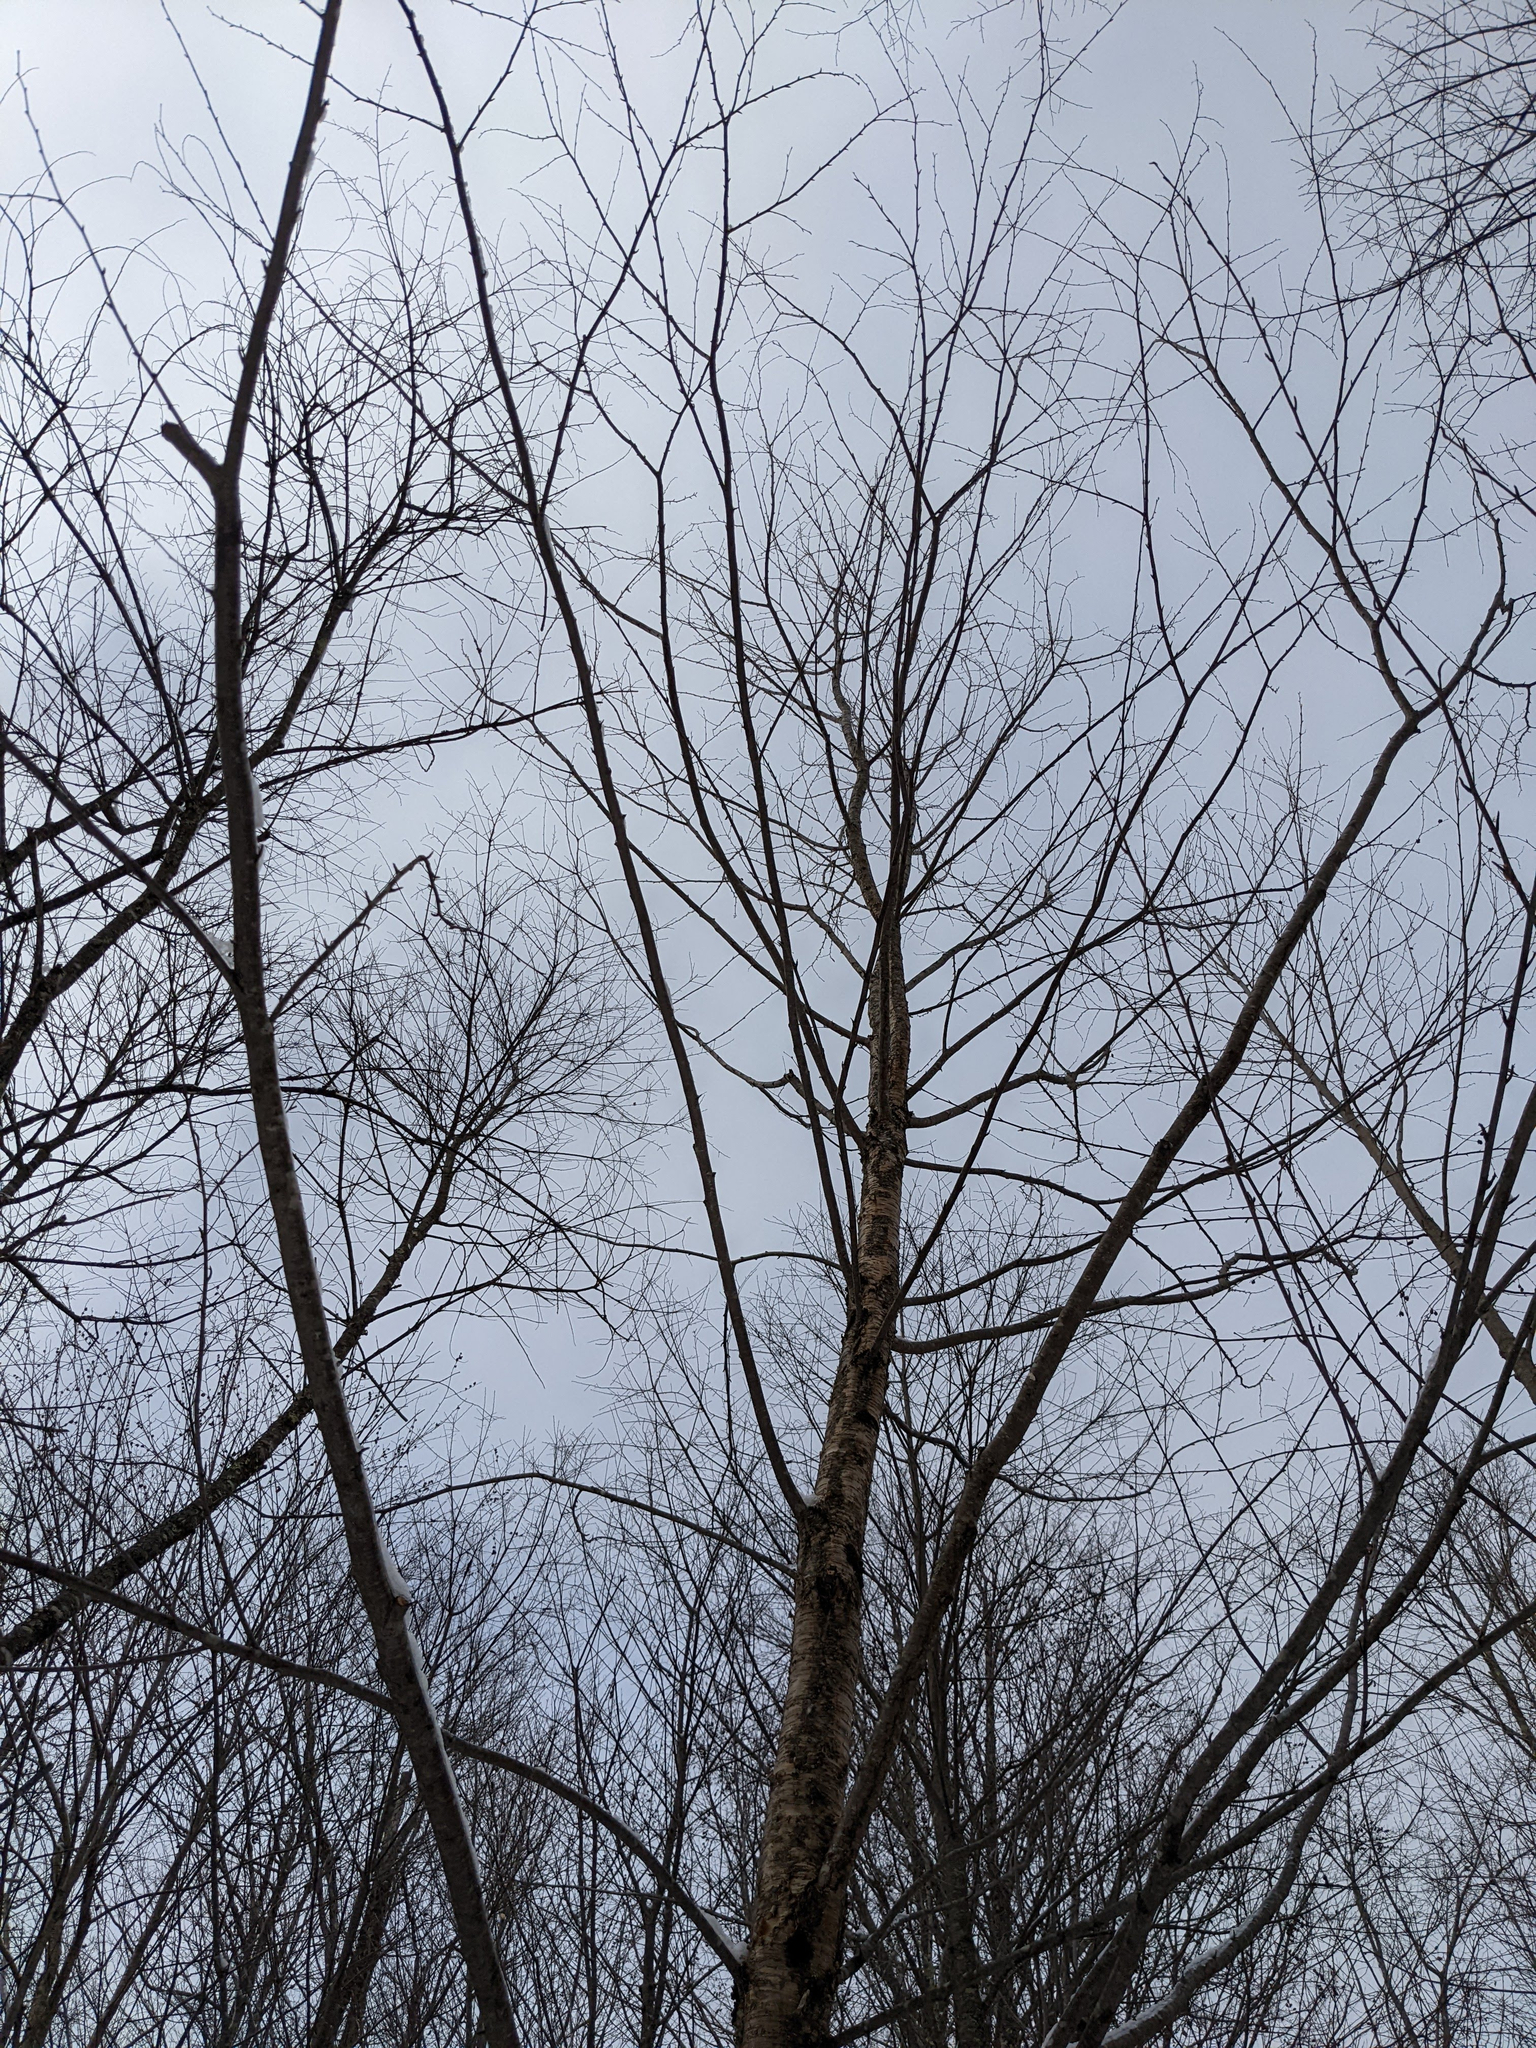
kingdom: Plantae
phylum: Tracheophyta
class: Magnoliopsida
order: Fagales
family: Betulaceae
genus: Betula
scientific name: Betula alleghaniensis
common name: Yellow birch
